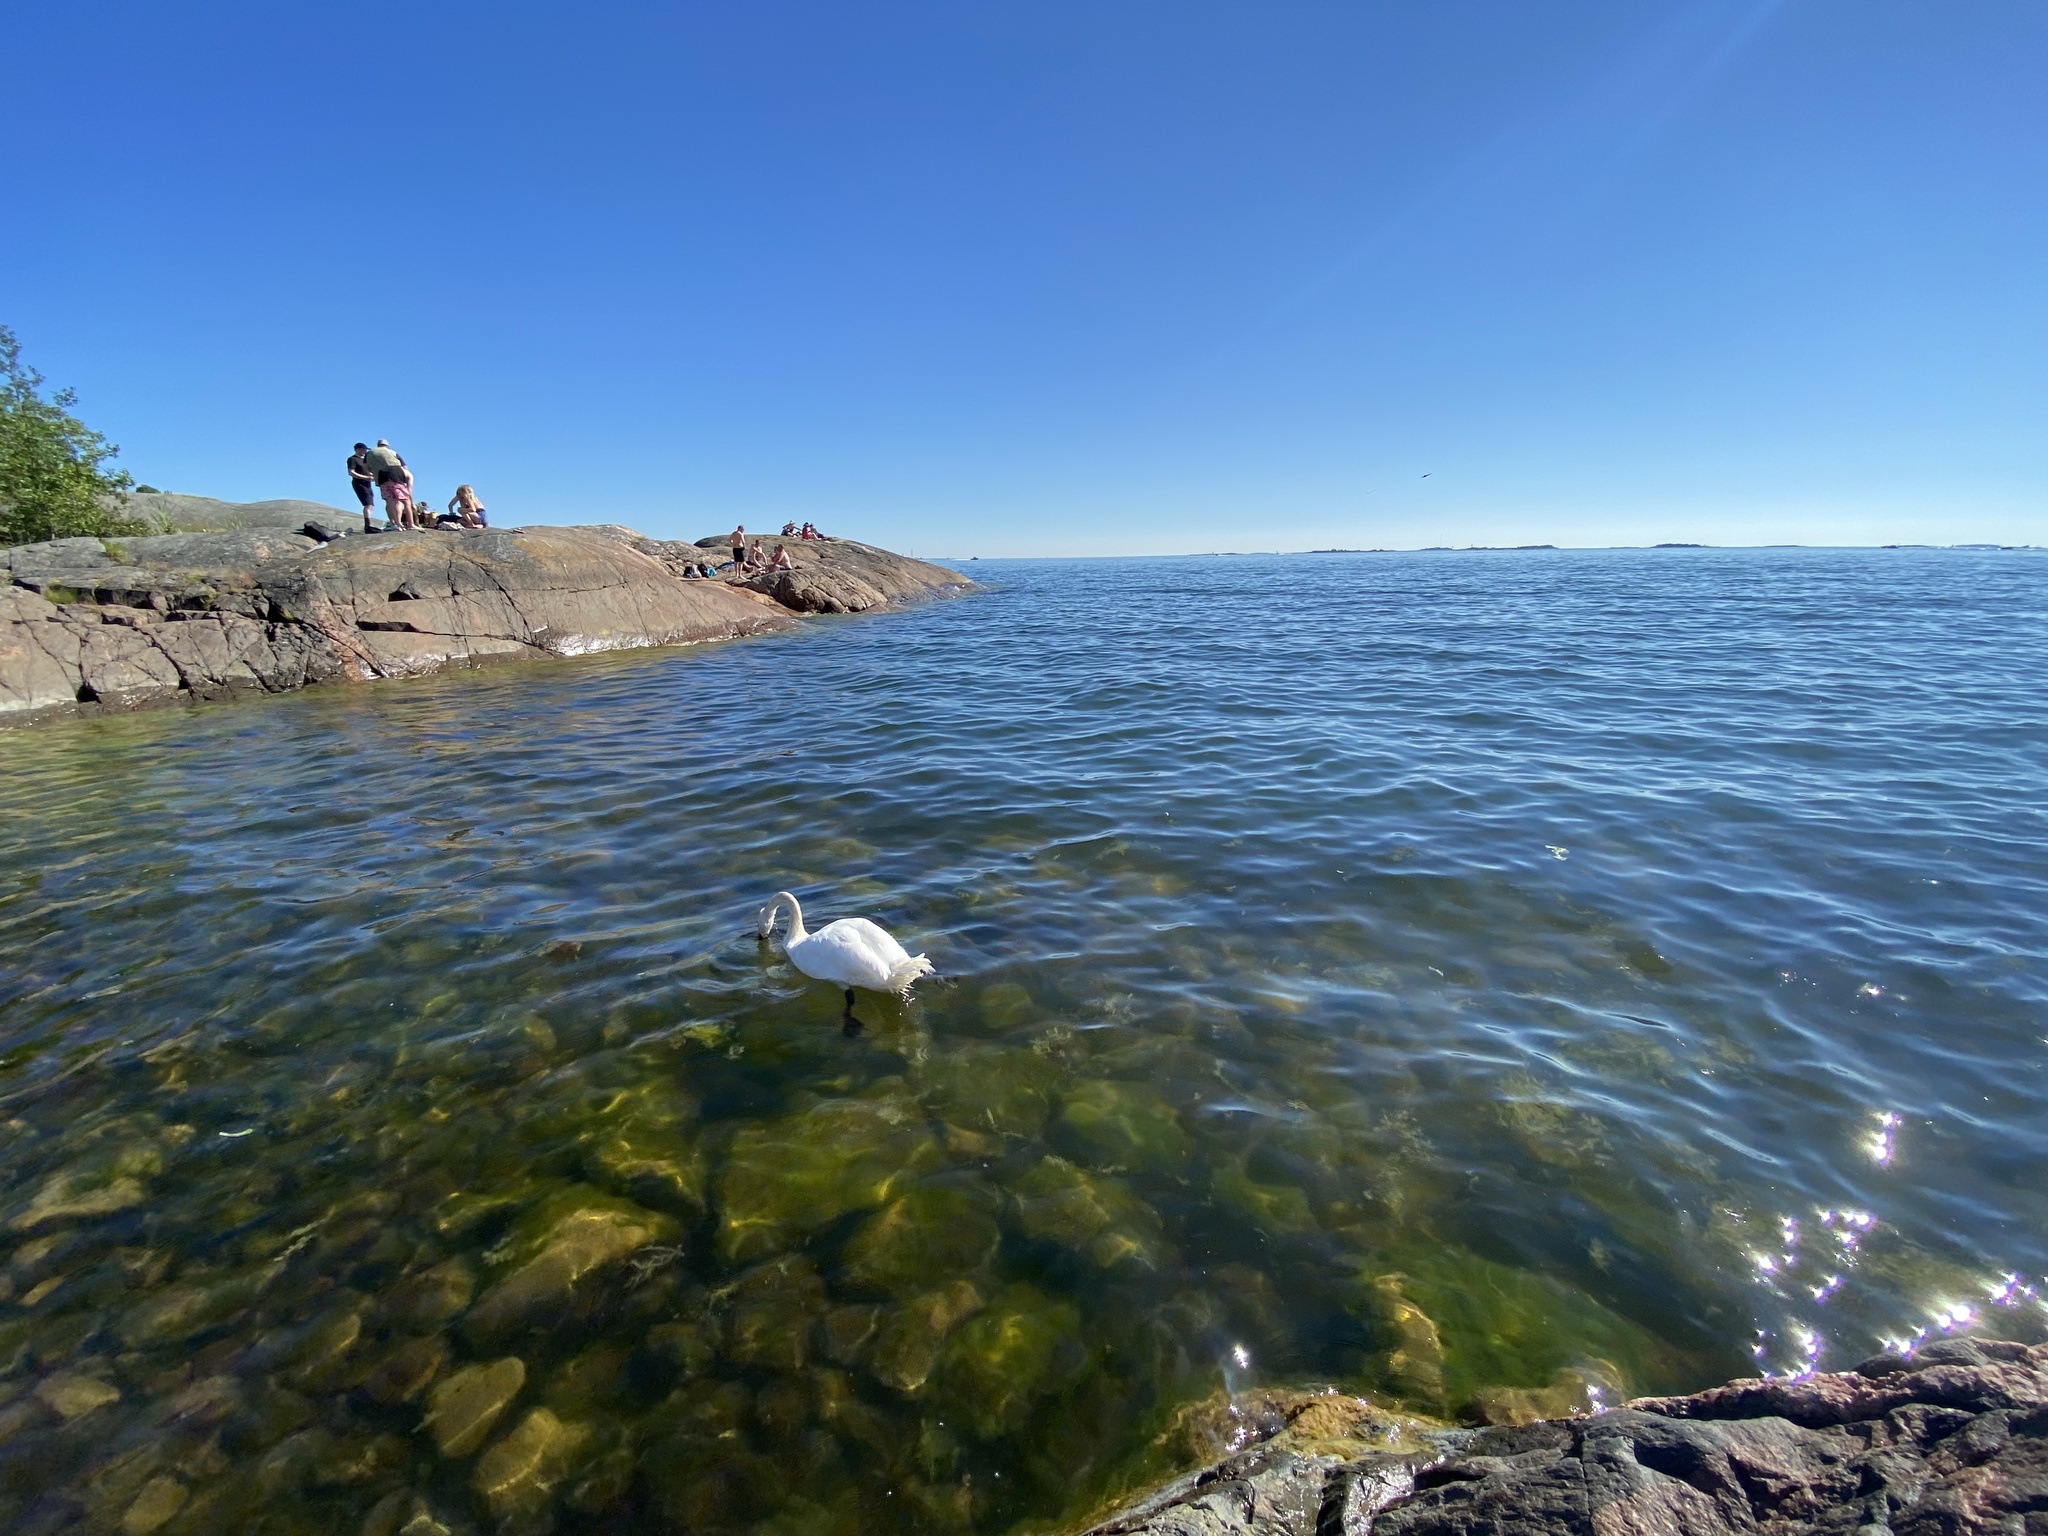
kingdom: Animalia
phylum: Chordata
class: Aves
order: Anseriformes
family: Anatidae
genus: Cygnus
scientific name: Cygnus olor
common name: Mute swan
